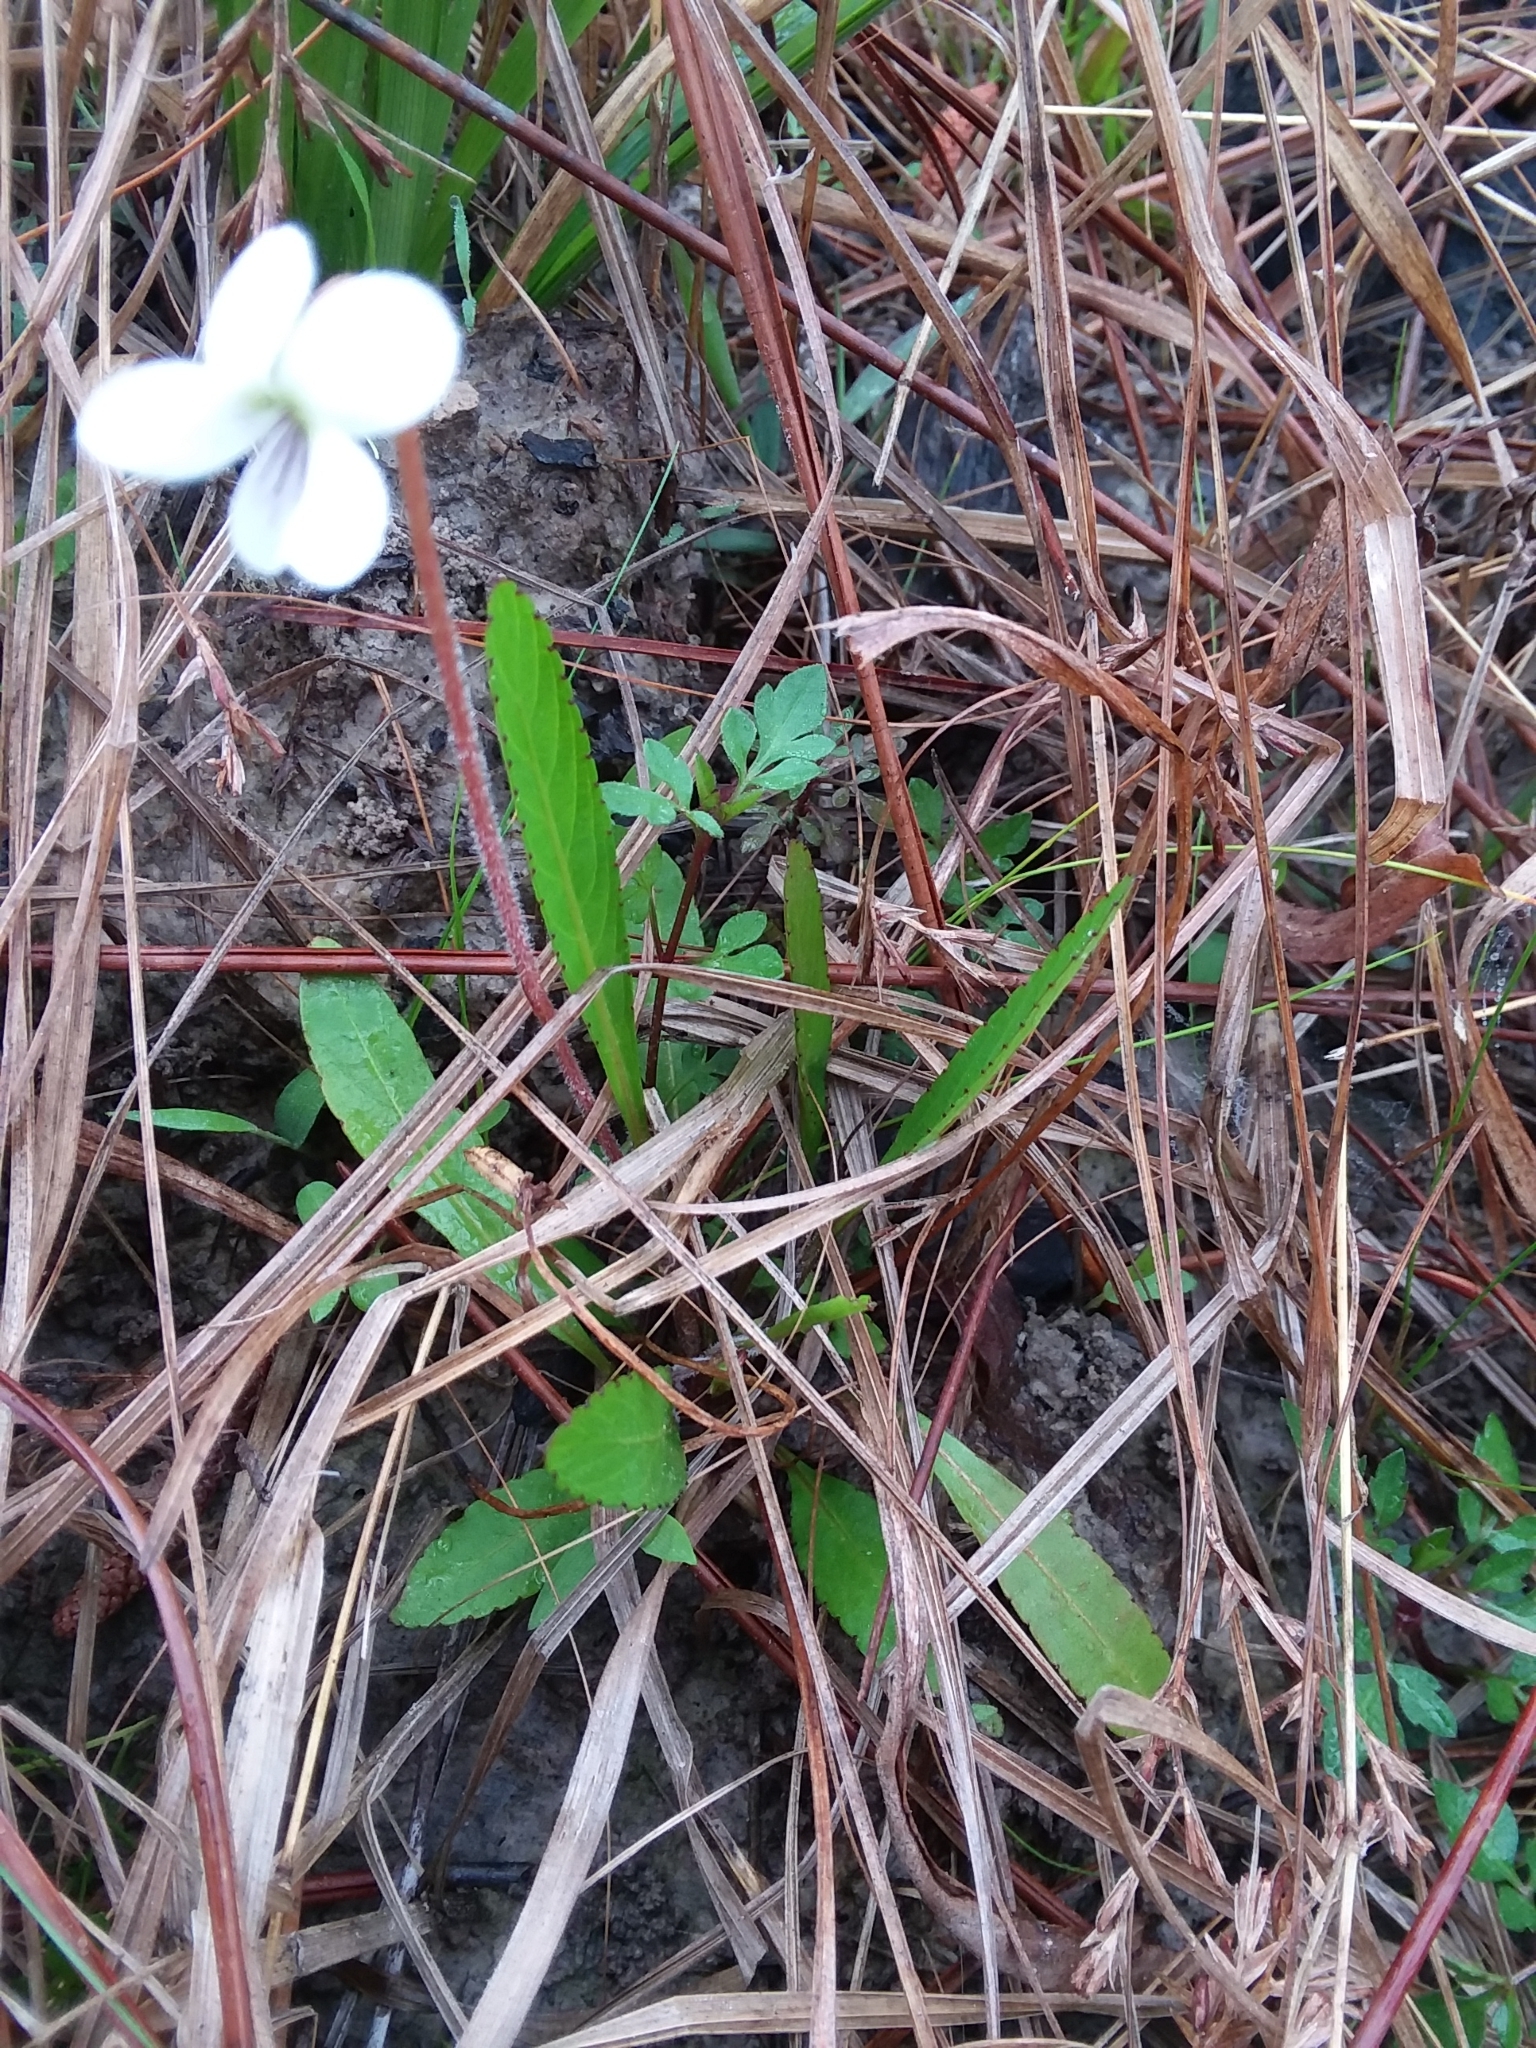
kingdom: Plantae
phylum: Tracheophyta
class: Magnoliopsida
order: Malpighiales
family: Violaceae
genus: Viola
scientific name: Viola lanceolata
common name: Bog white violet
